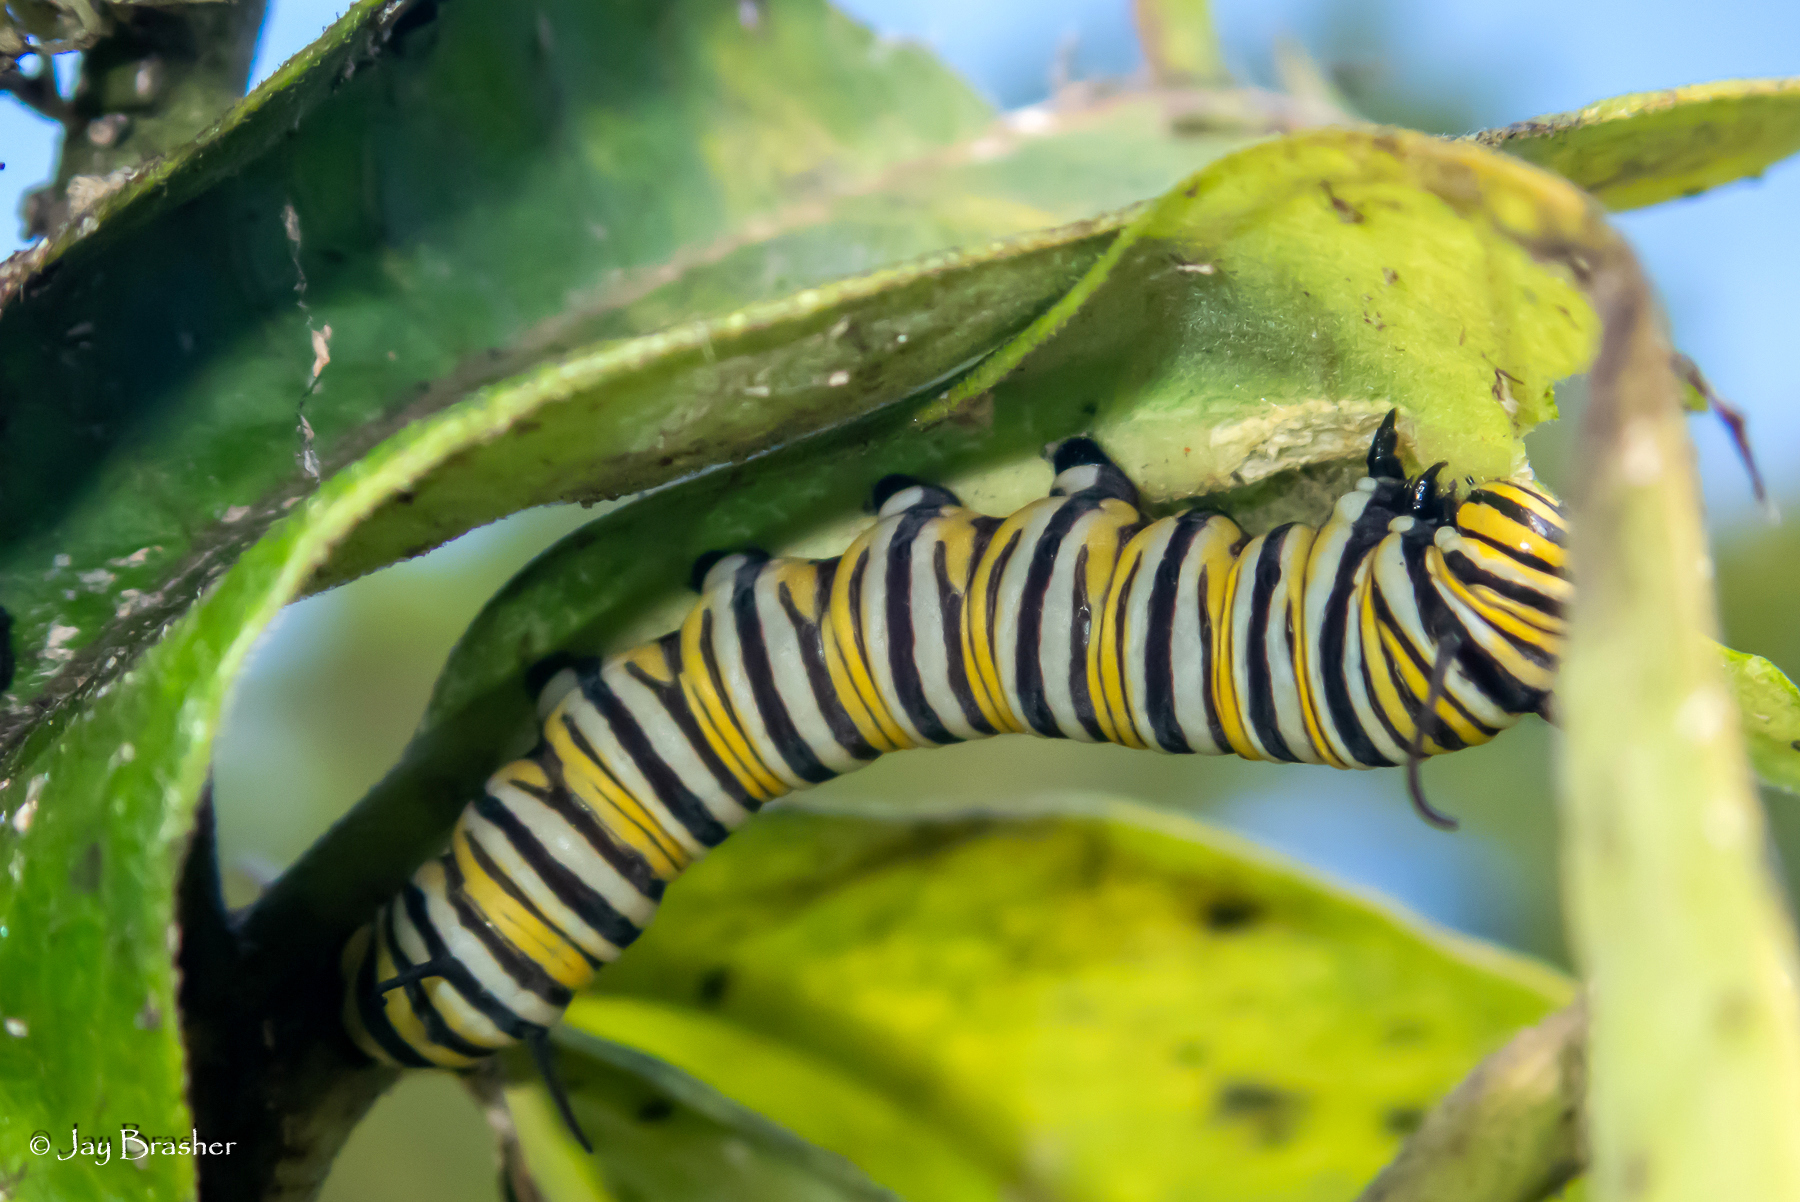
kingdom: Animalia
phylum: Arthropoda
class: Insecta
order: Lepidoptera
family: Nymphalidae
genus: Danaus
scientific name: Danaus plexippus
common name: Monarch
